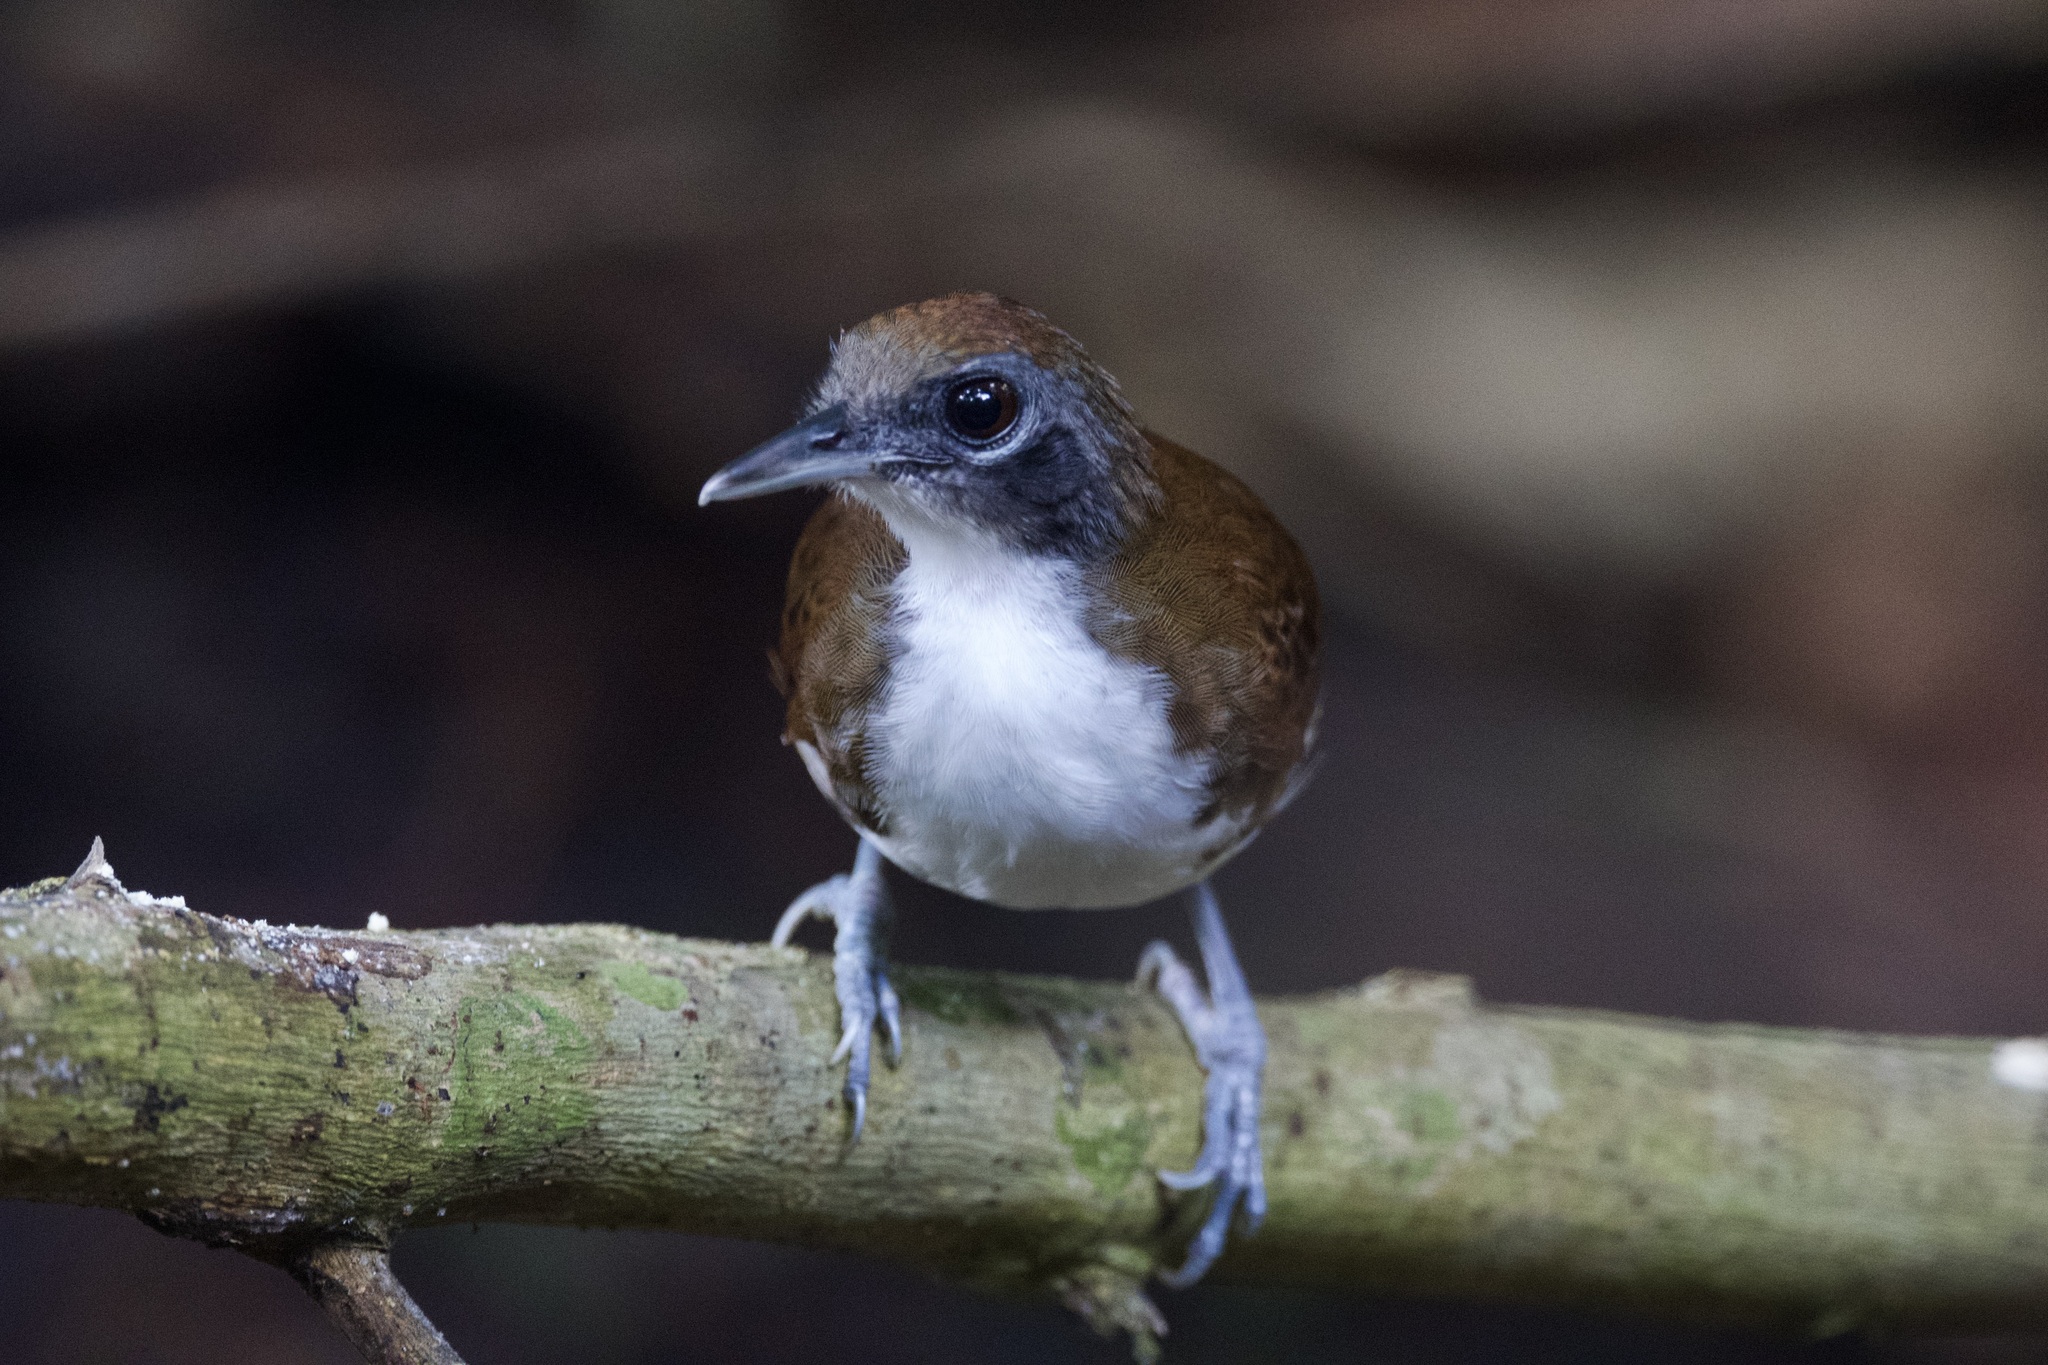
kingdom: Animalia
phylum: Chordata
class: Aves
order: Passeriformes
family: Thamnophilidae
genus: Gymnopithys
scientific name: Gymnopithys leucaspis
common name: White-cheeked antbird
